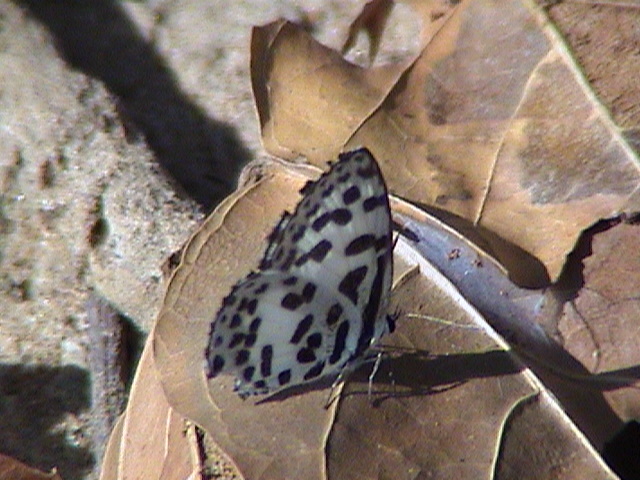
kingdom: Animalia
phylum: Arthropoda
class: Insecta
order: Lepidoptera
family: Lycaenidae
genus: Castalius
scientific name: Castalius rosimon
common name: Common pierrot
